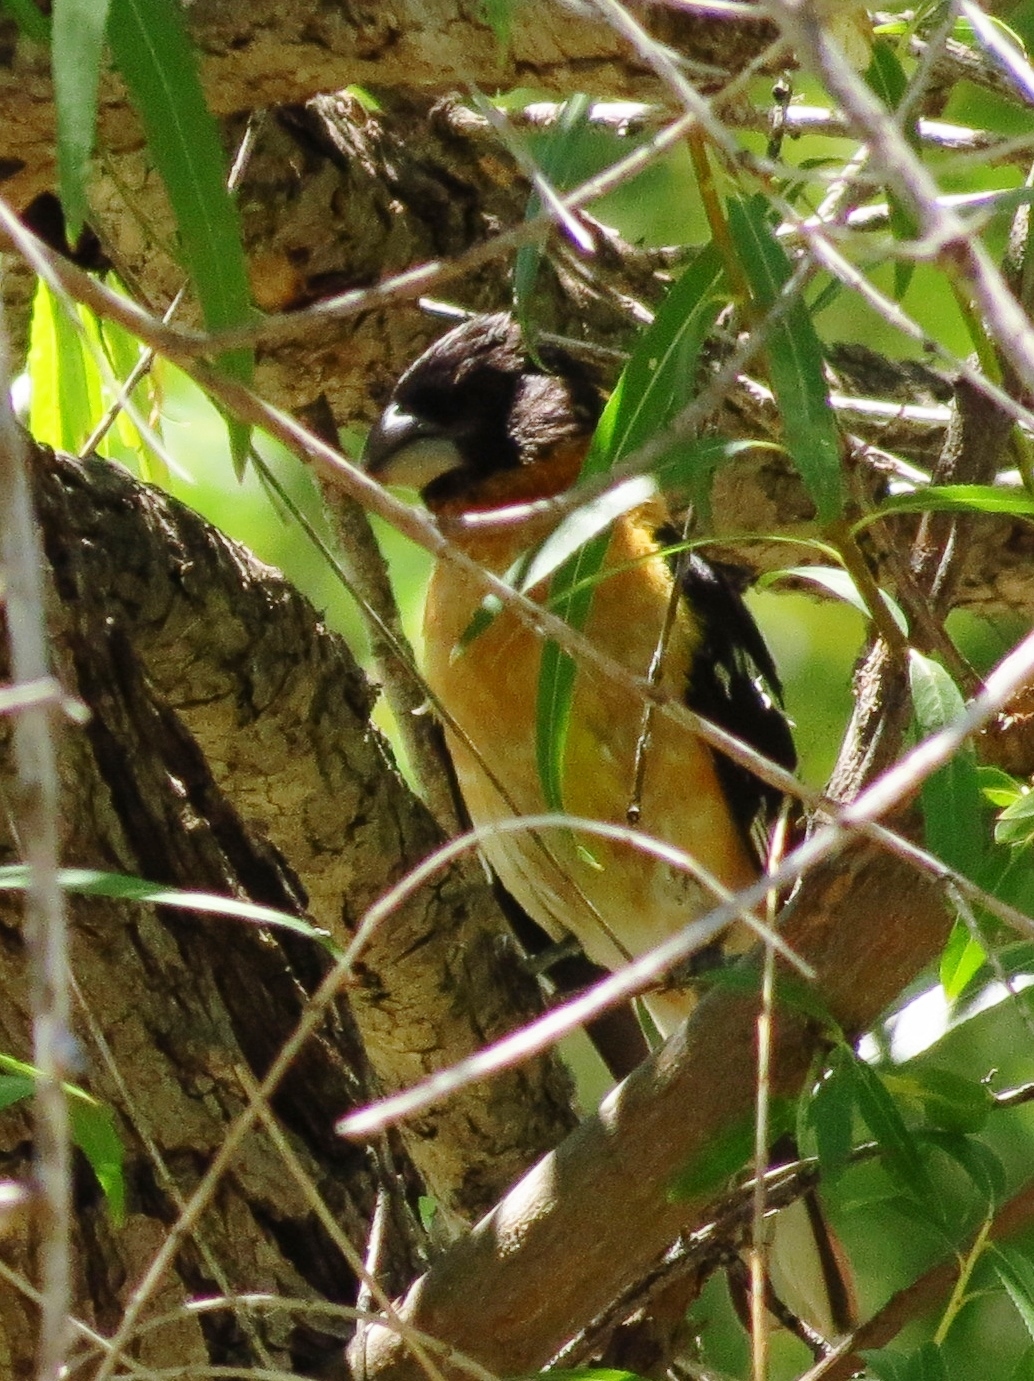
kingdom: Animalia
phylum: Chordata
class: Aves
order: Passeriformes
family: Cardinalidae
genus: Pheucticus
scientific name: Pheucticus melanocephalus
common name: Black-headed grosbeak
